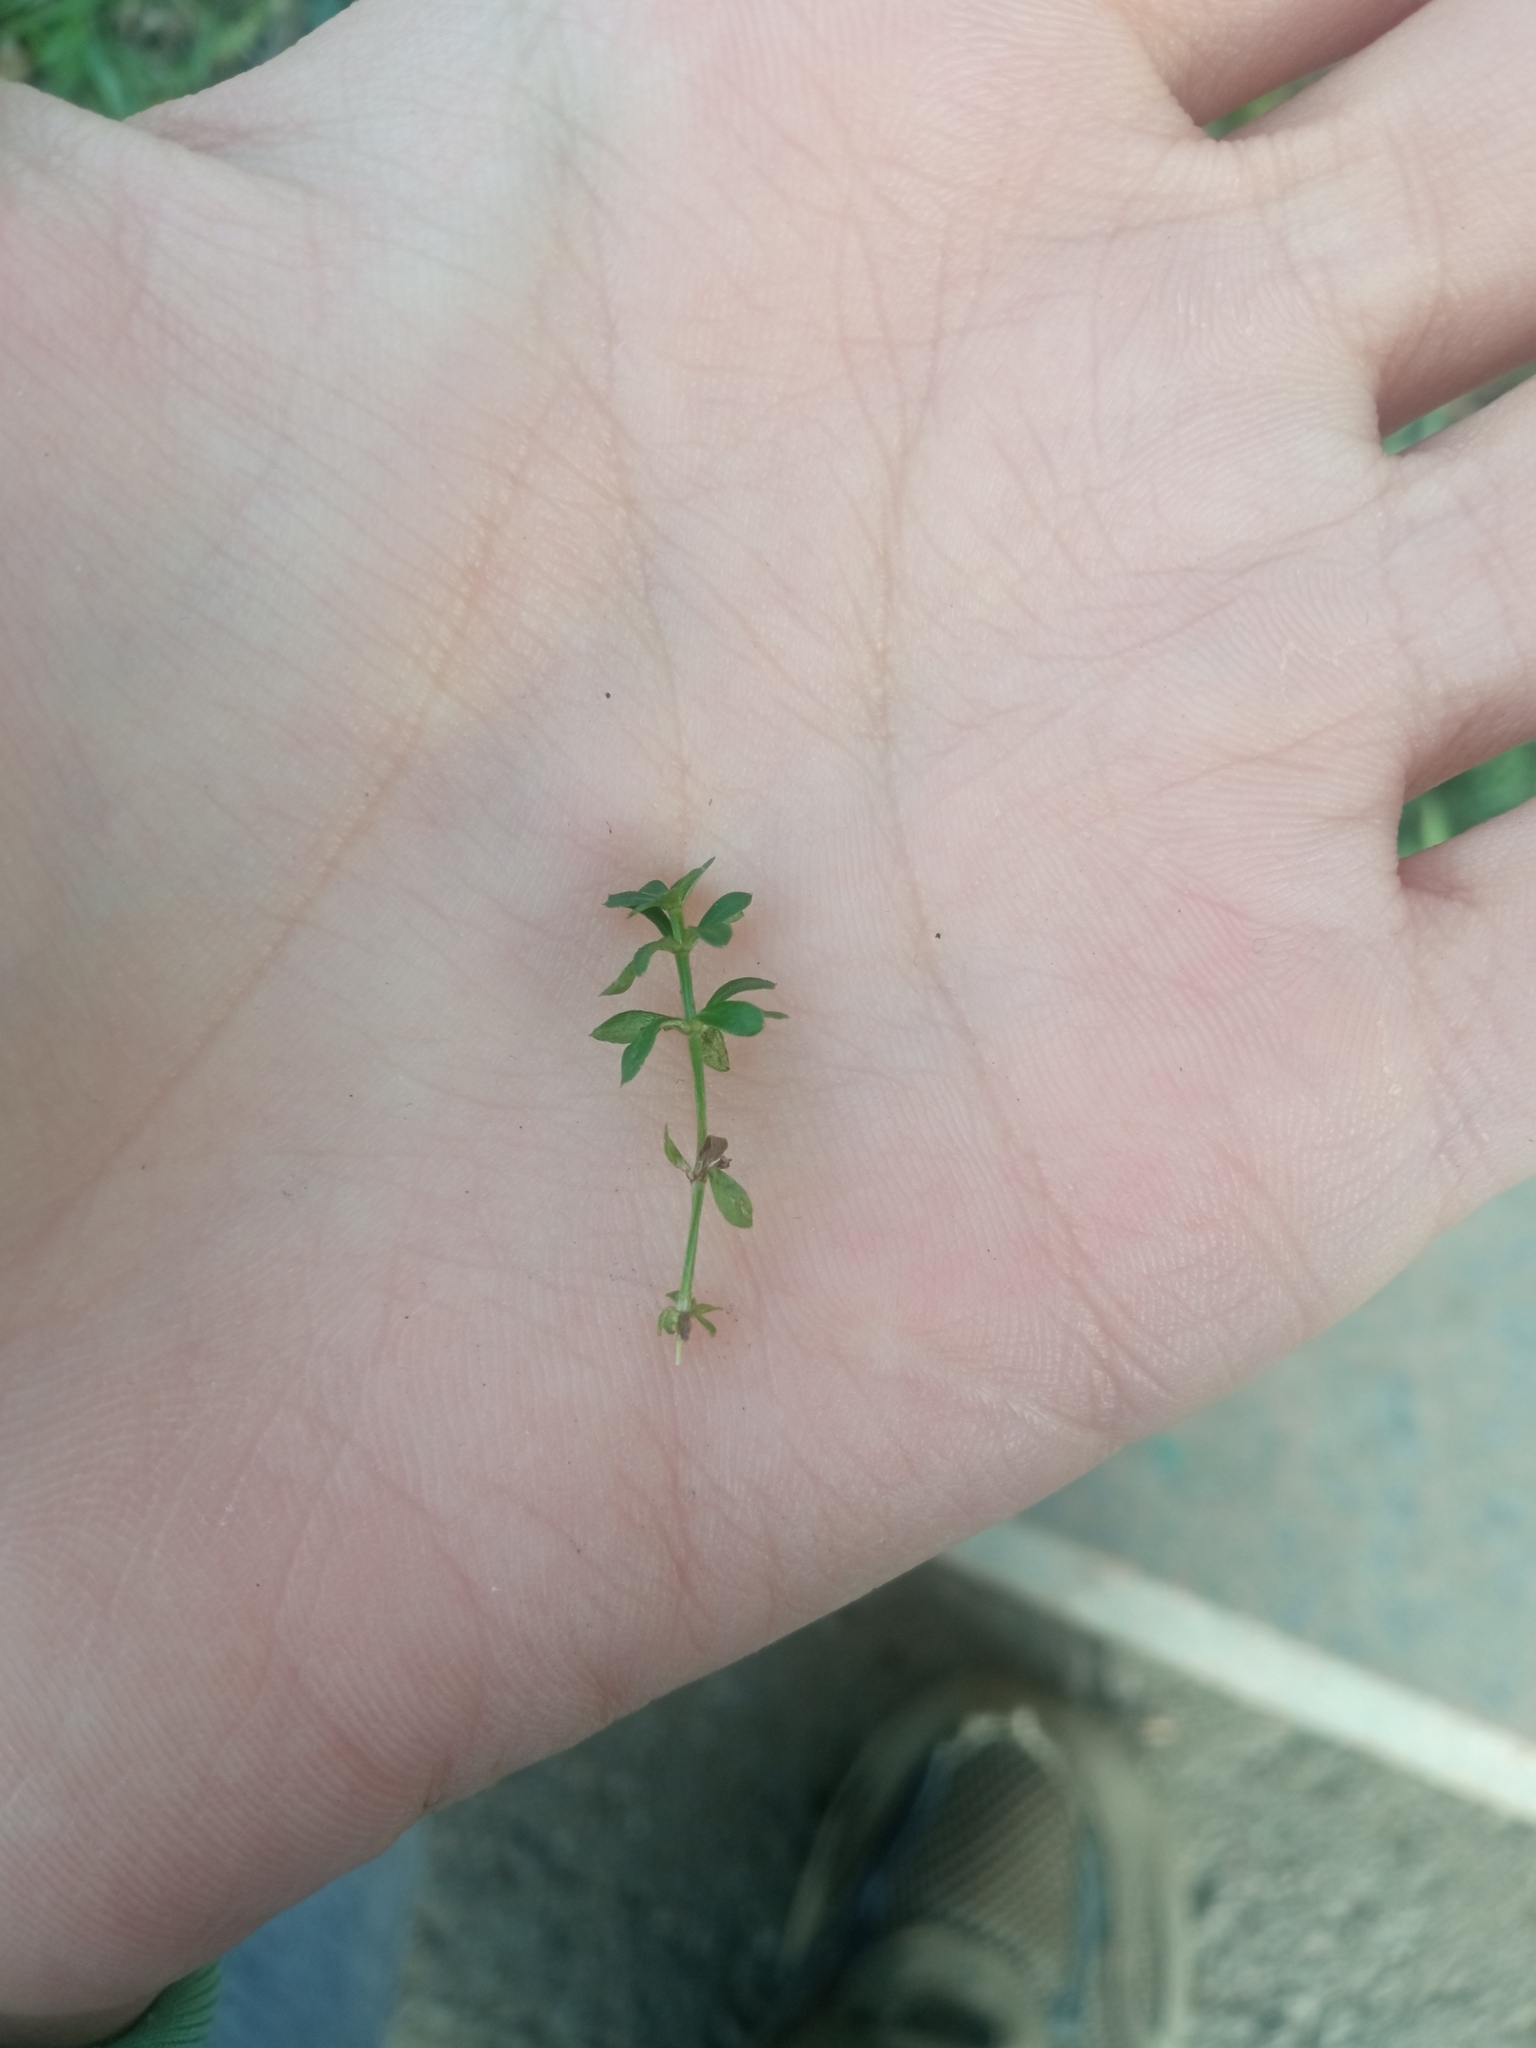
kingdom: Plantae
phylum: Tracheophyta
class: Magnoliopsida
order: Gentianales
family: Rubiaceae
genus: Galium
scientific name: Galium mollugo
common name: Hedge bedstraw
